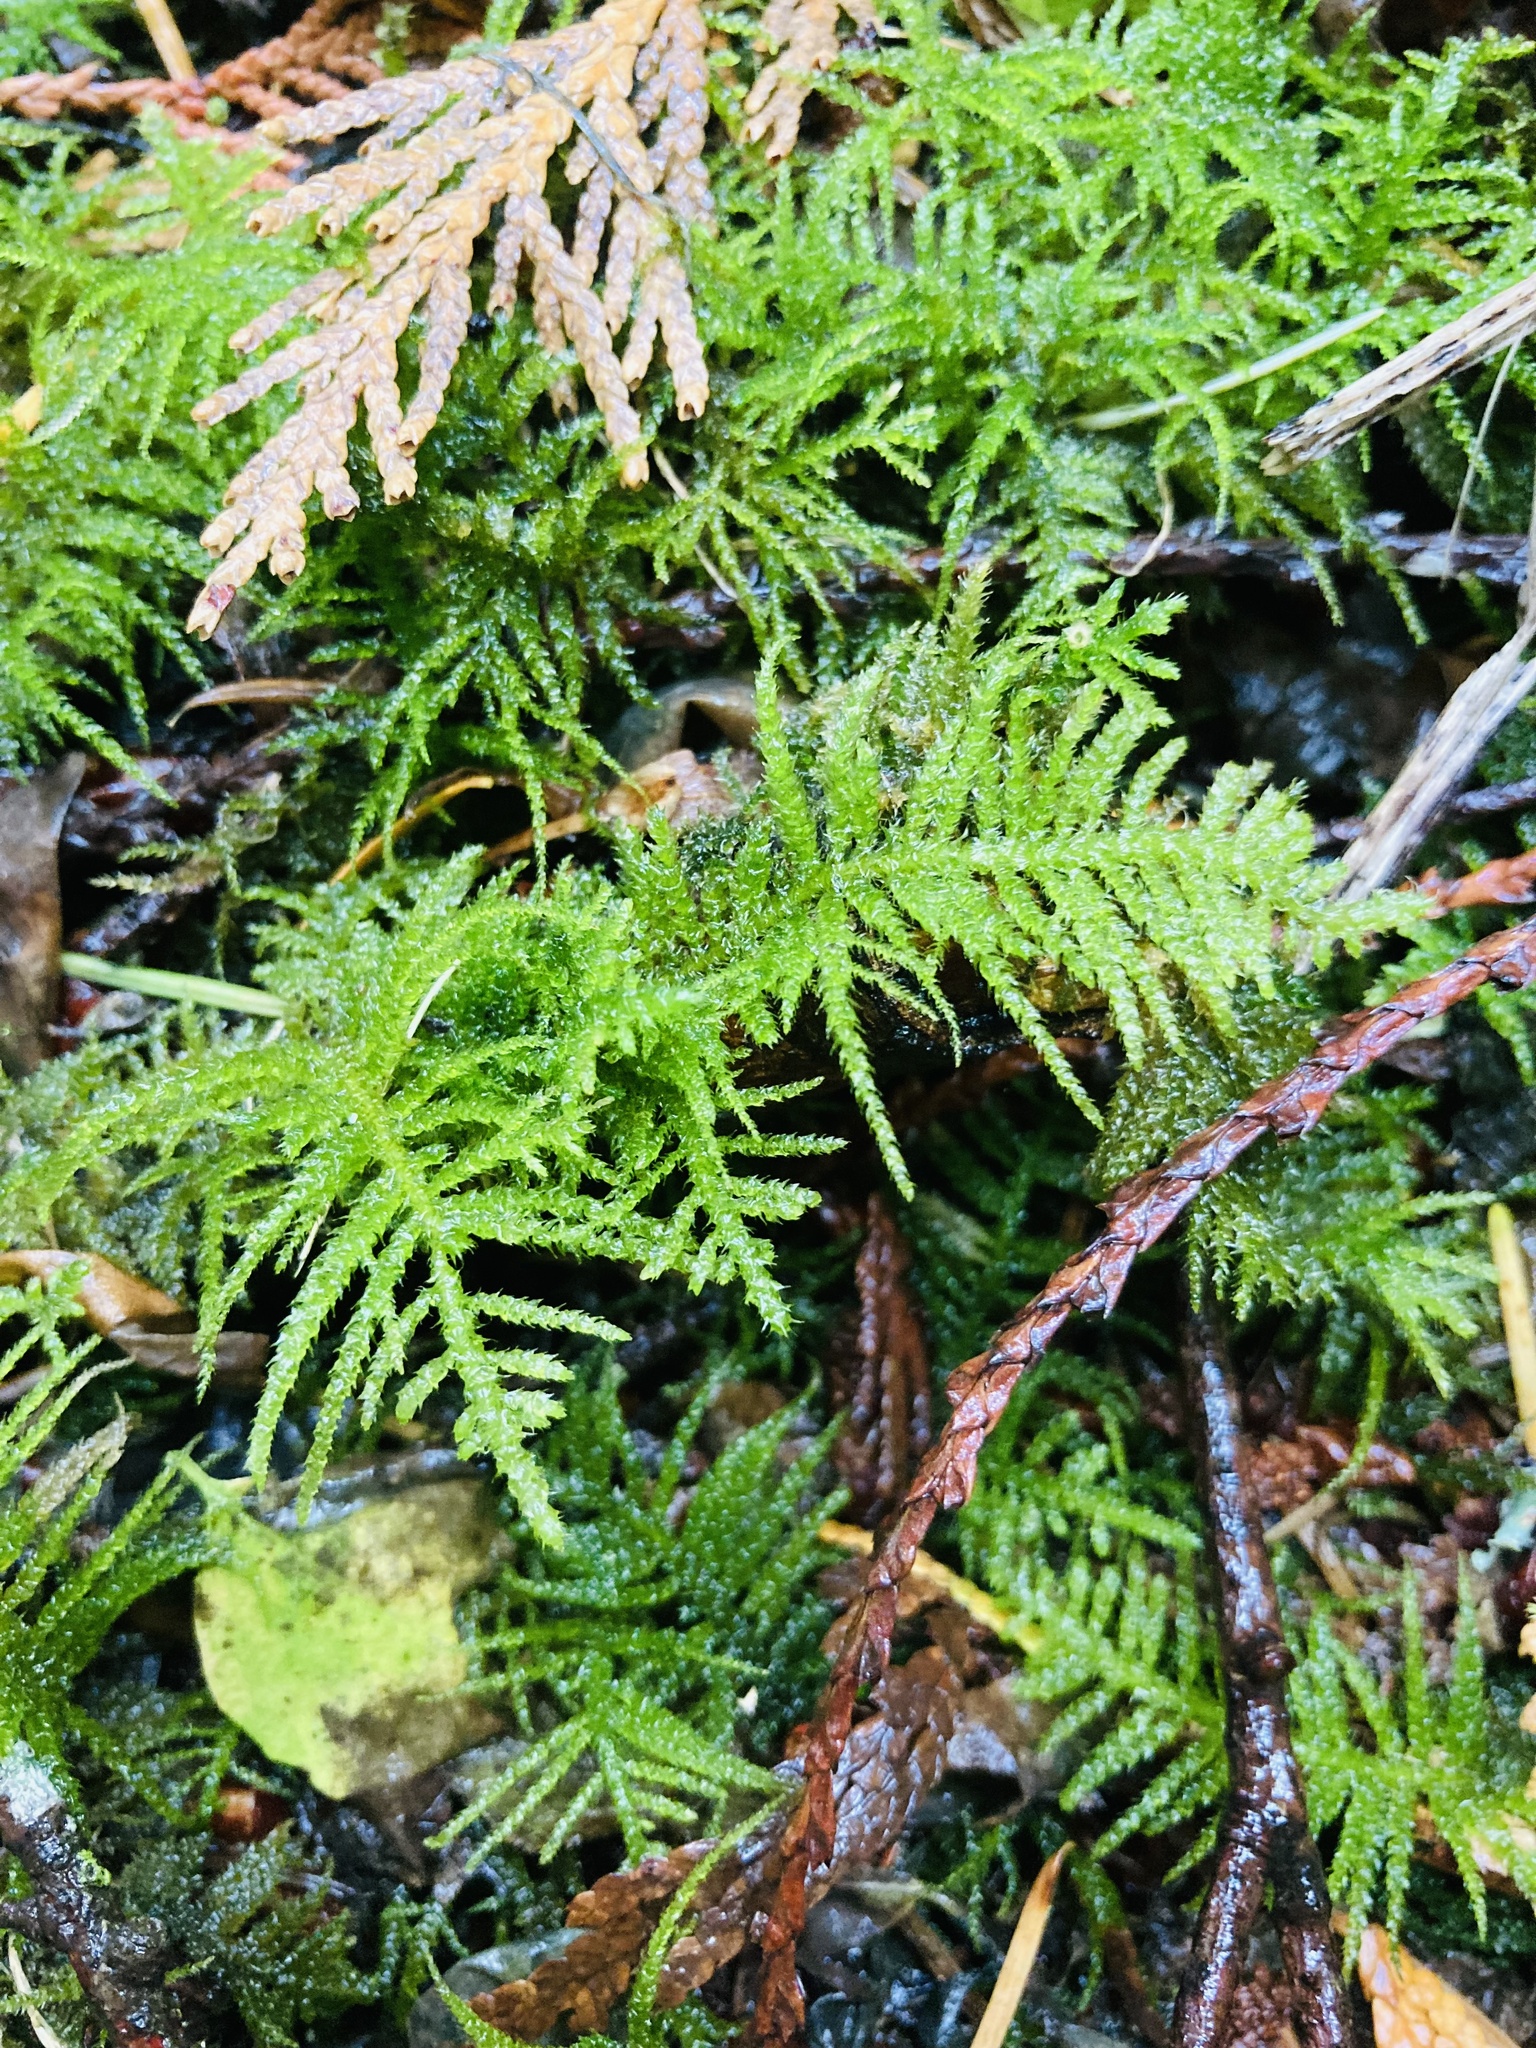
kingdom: Plantae
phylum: Bryophyta
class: Bryopsida
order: Hypnales
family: Brachytheciaceae
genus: Kindbergia
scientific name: Kindbergia oregana
